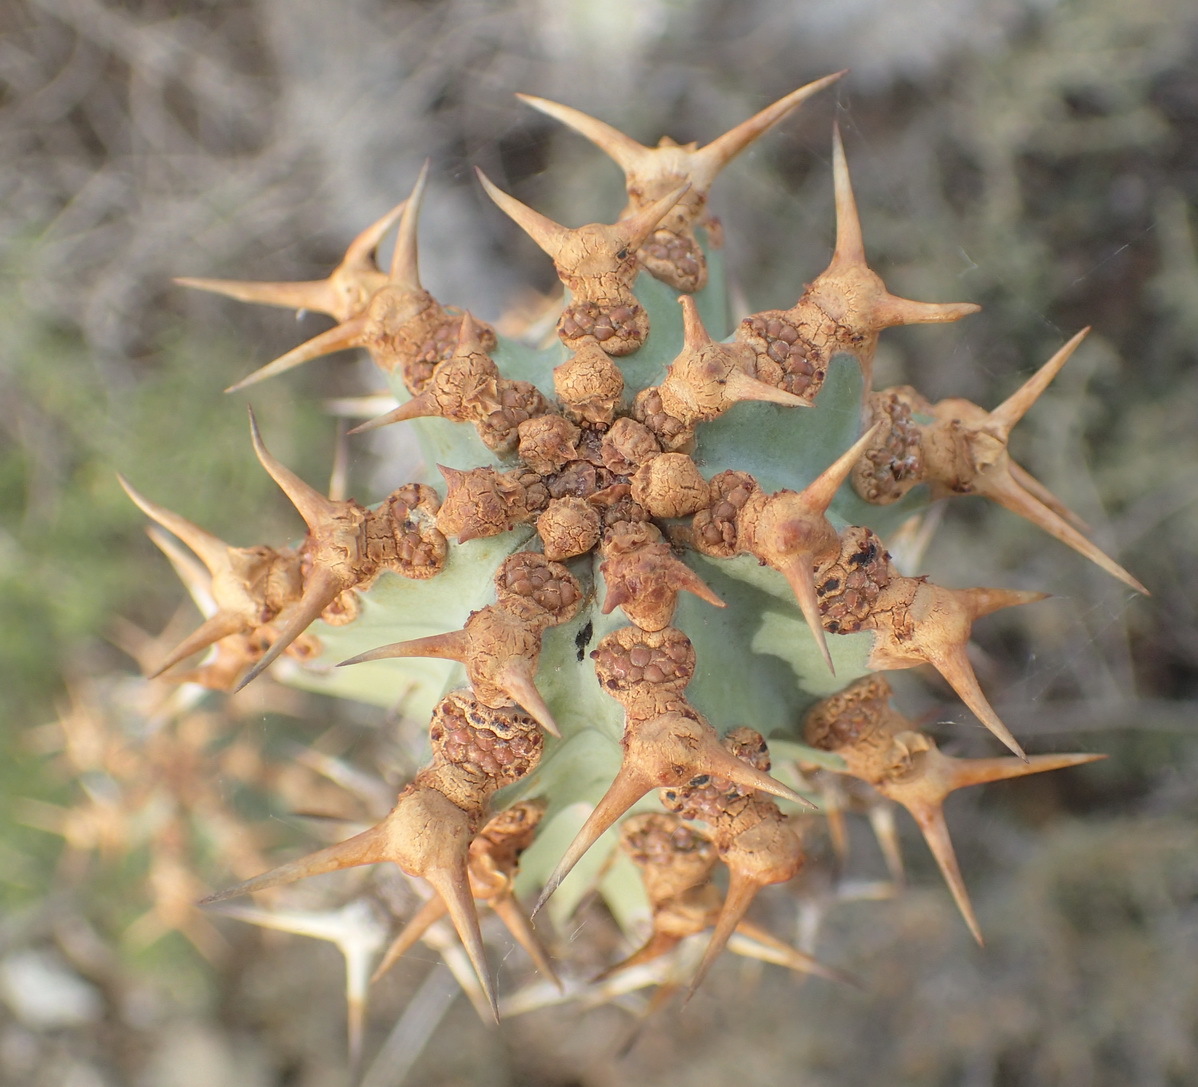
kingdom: Plantae
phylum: Tracheophyta
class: Magnoliopsida
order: Malpighiales
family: Euphorbiaceae
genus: Euphorbia
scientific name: Euphorbia radyeri
